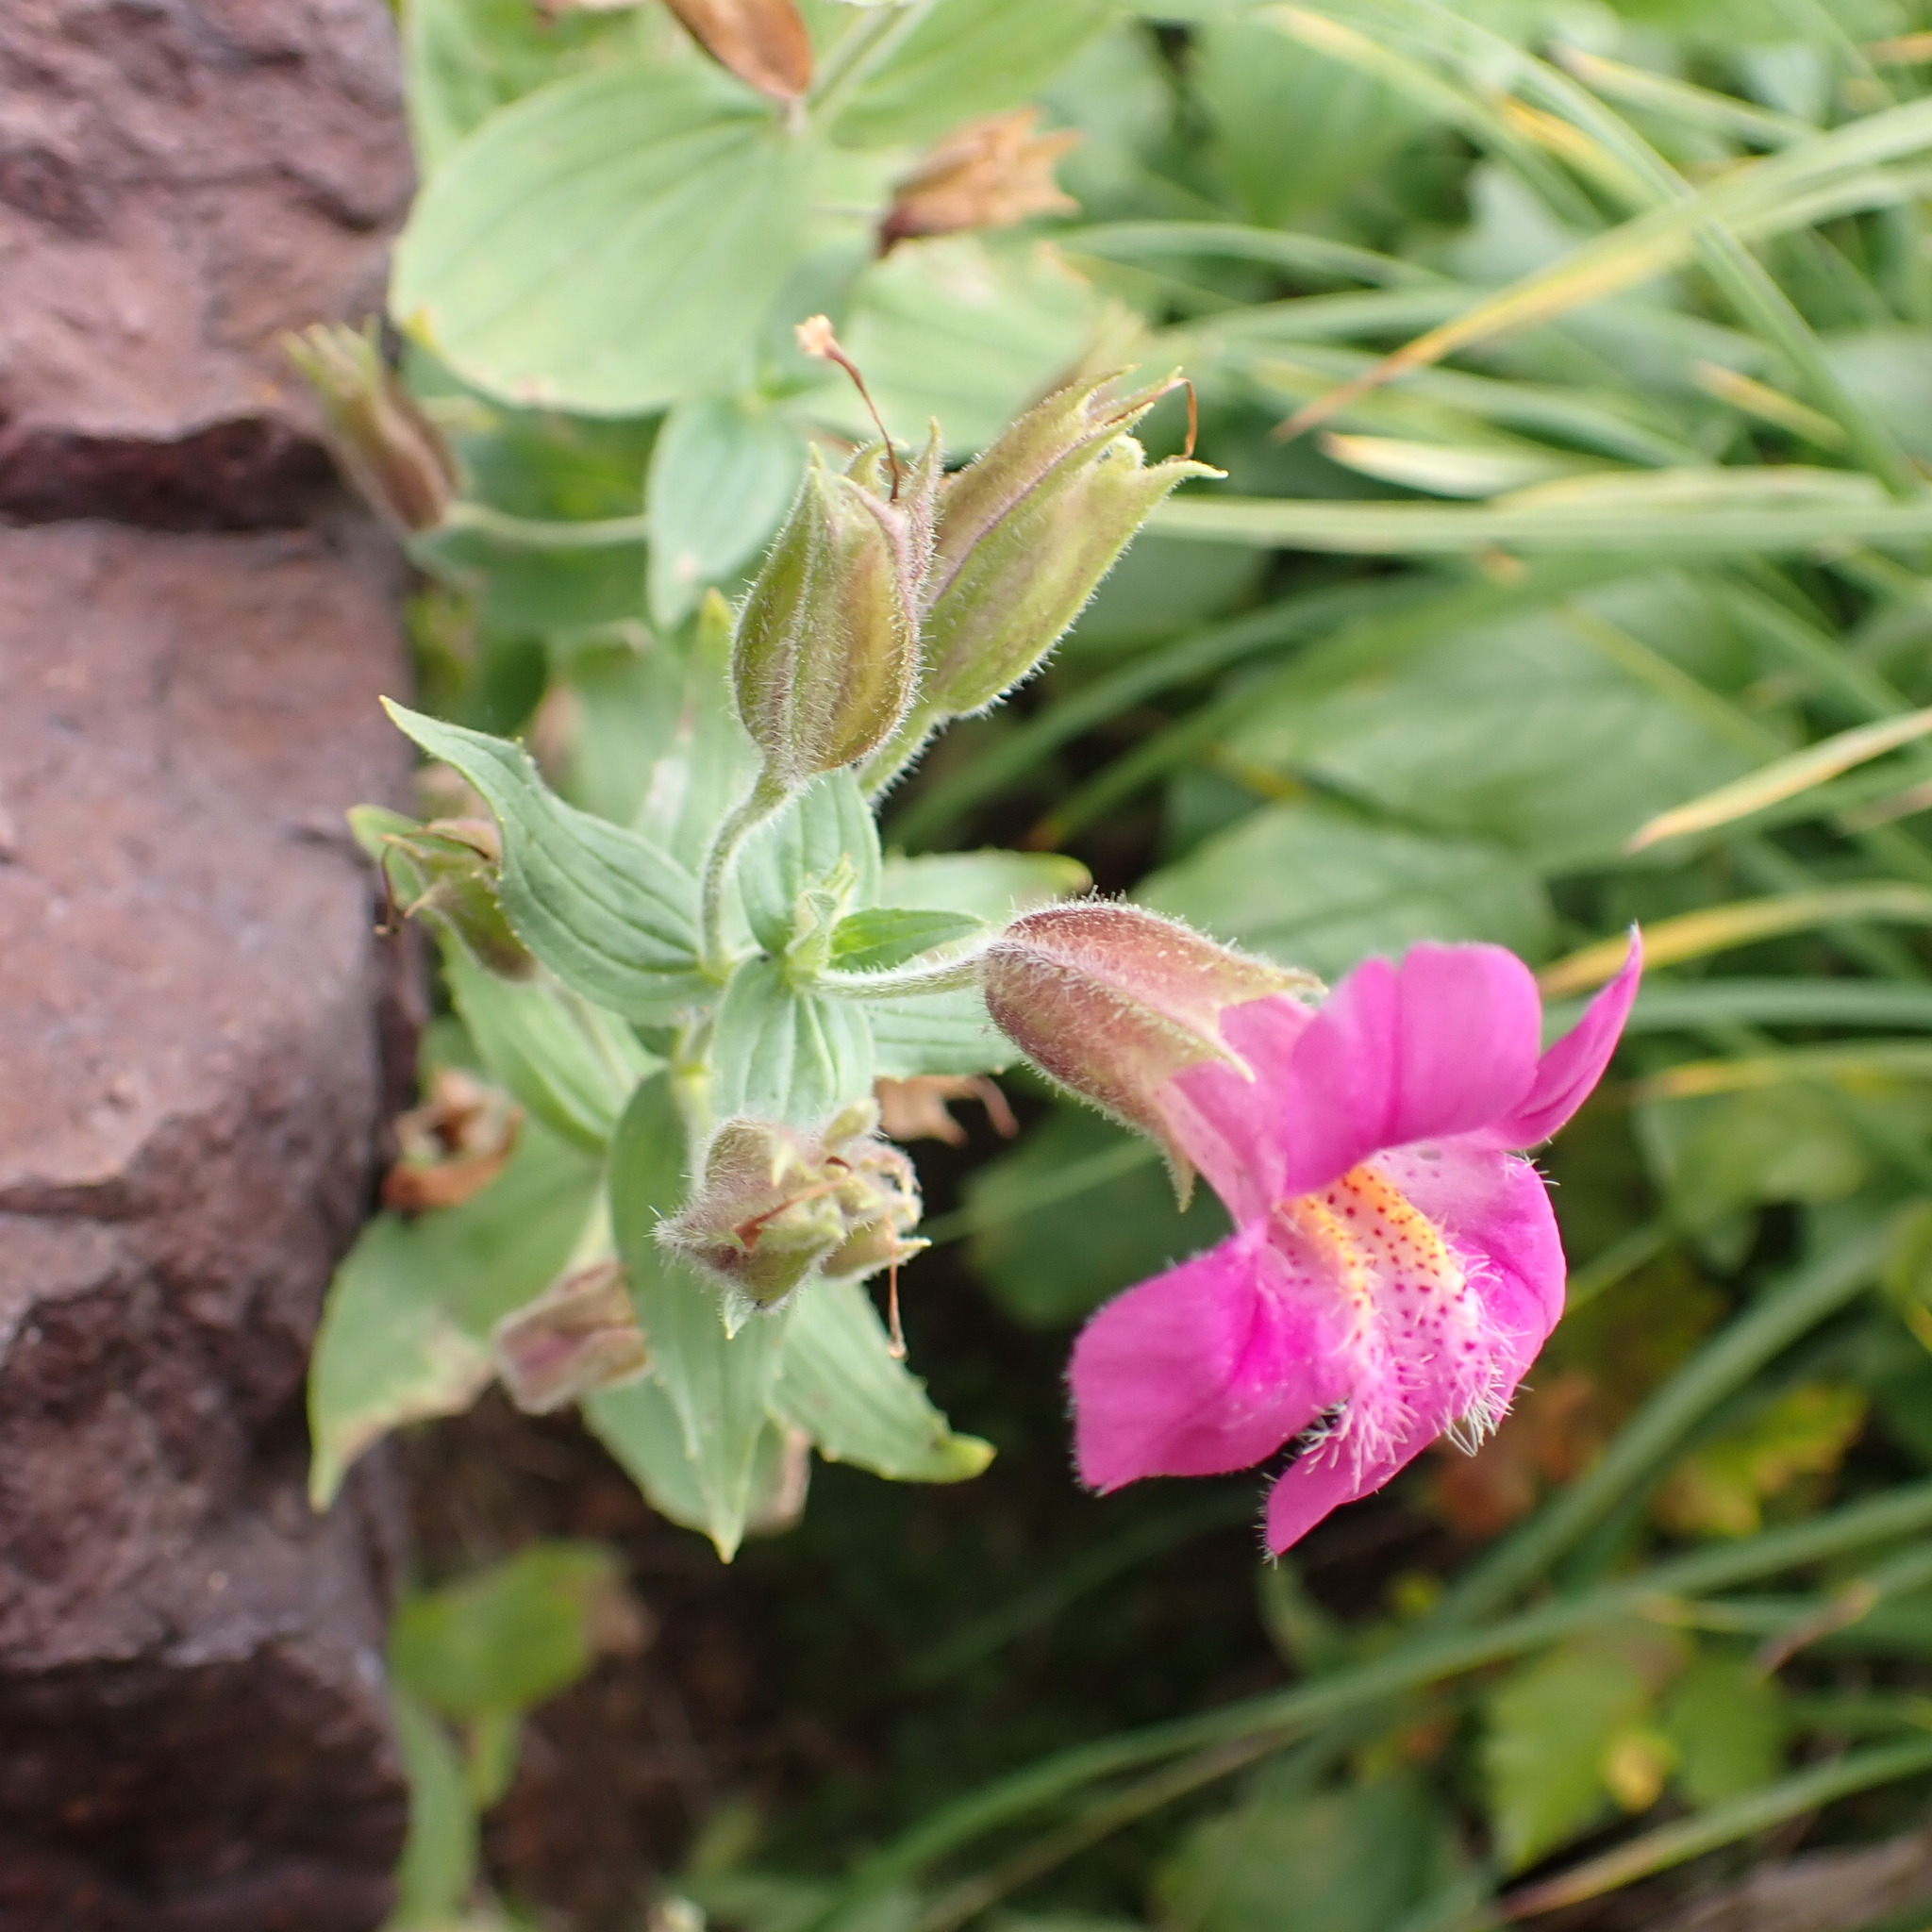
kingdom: Plantae
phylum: Tracheophyta
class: Magnoliopsida
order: Lamiales
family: Phrymaceae
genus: Erythranthe
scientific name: Erythranthe lewisii
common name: Lewis's monkey-flower
